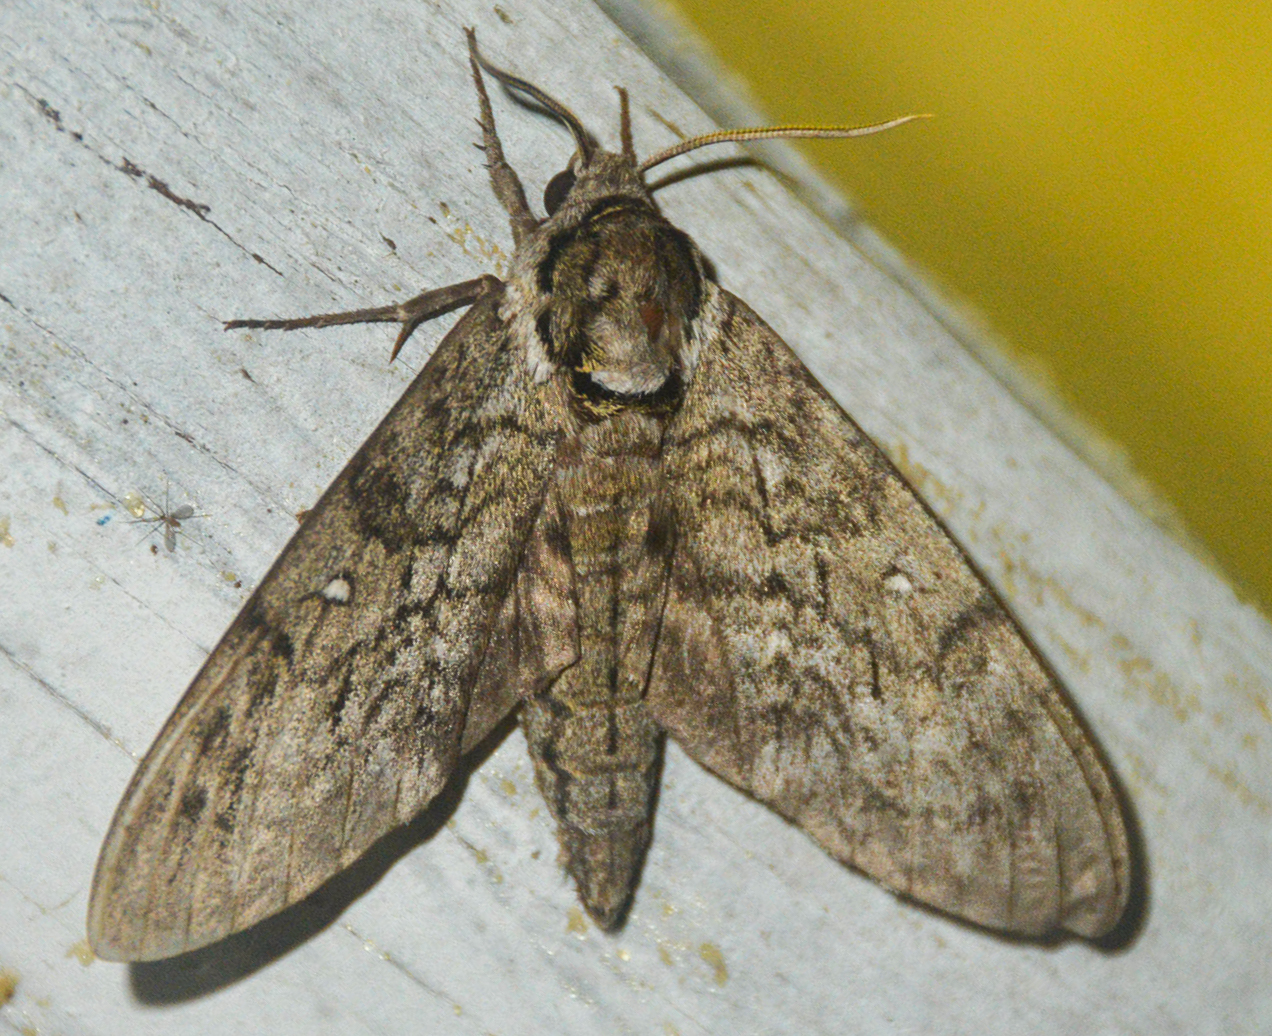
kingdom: Animalia
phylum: Arthropoda
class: Insecta
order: Lepidoptera
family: Sphingidae
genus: Ceratomia
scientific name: Ceratomia undulosa
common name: Waved sphinx
